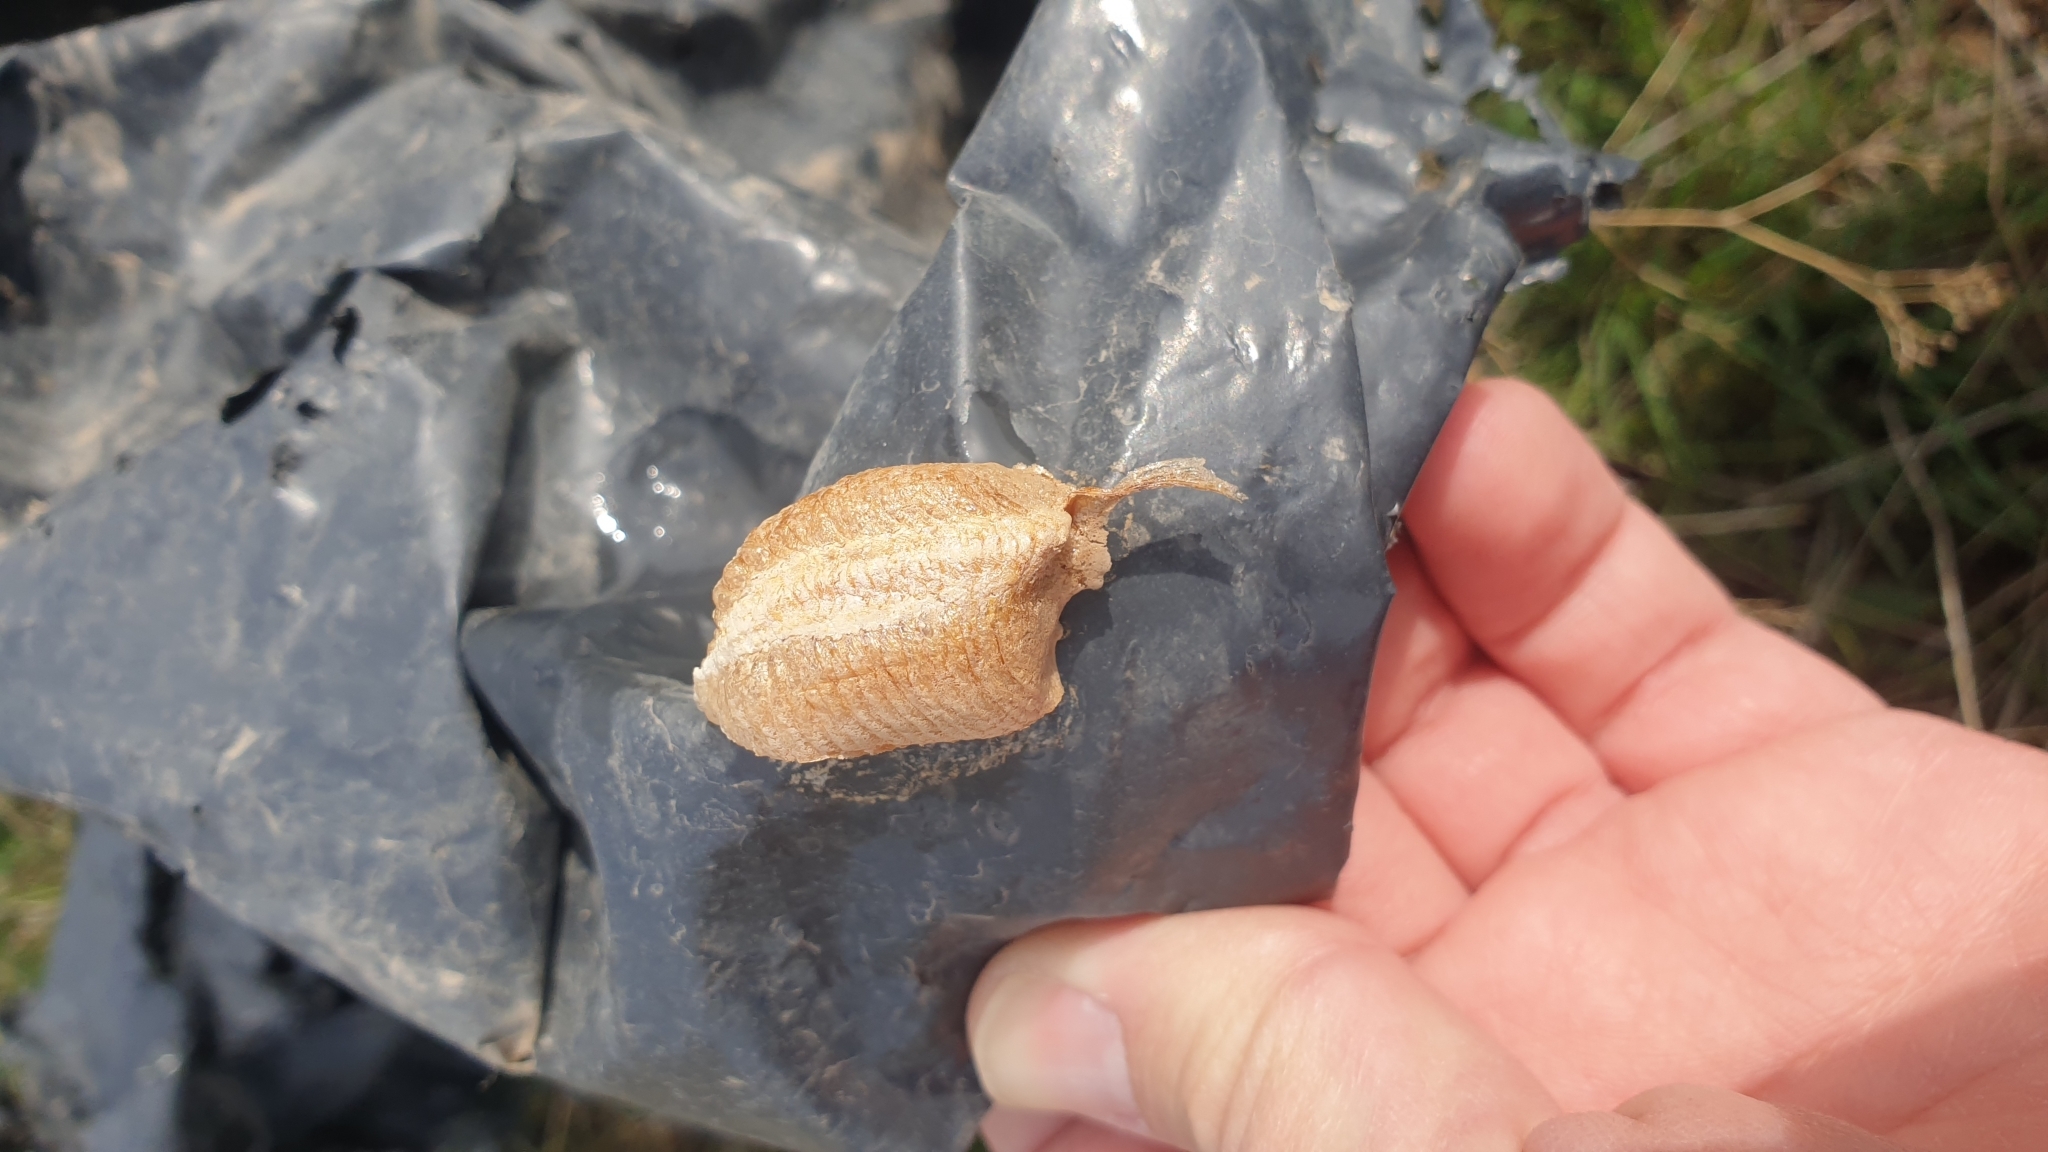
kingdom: Animalia
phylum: Arthropoda
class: Insecta
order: Mantodea
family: Mantidae
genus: Mantis
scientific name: Mantis religiosa
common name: Praying mantis
